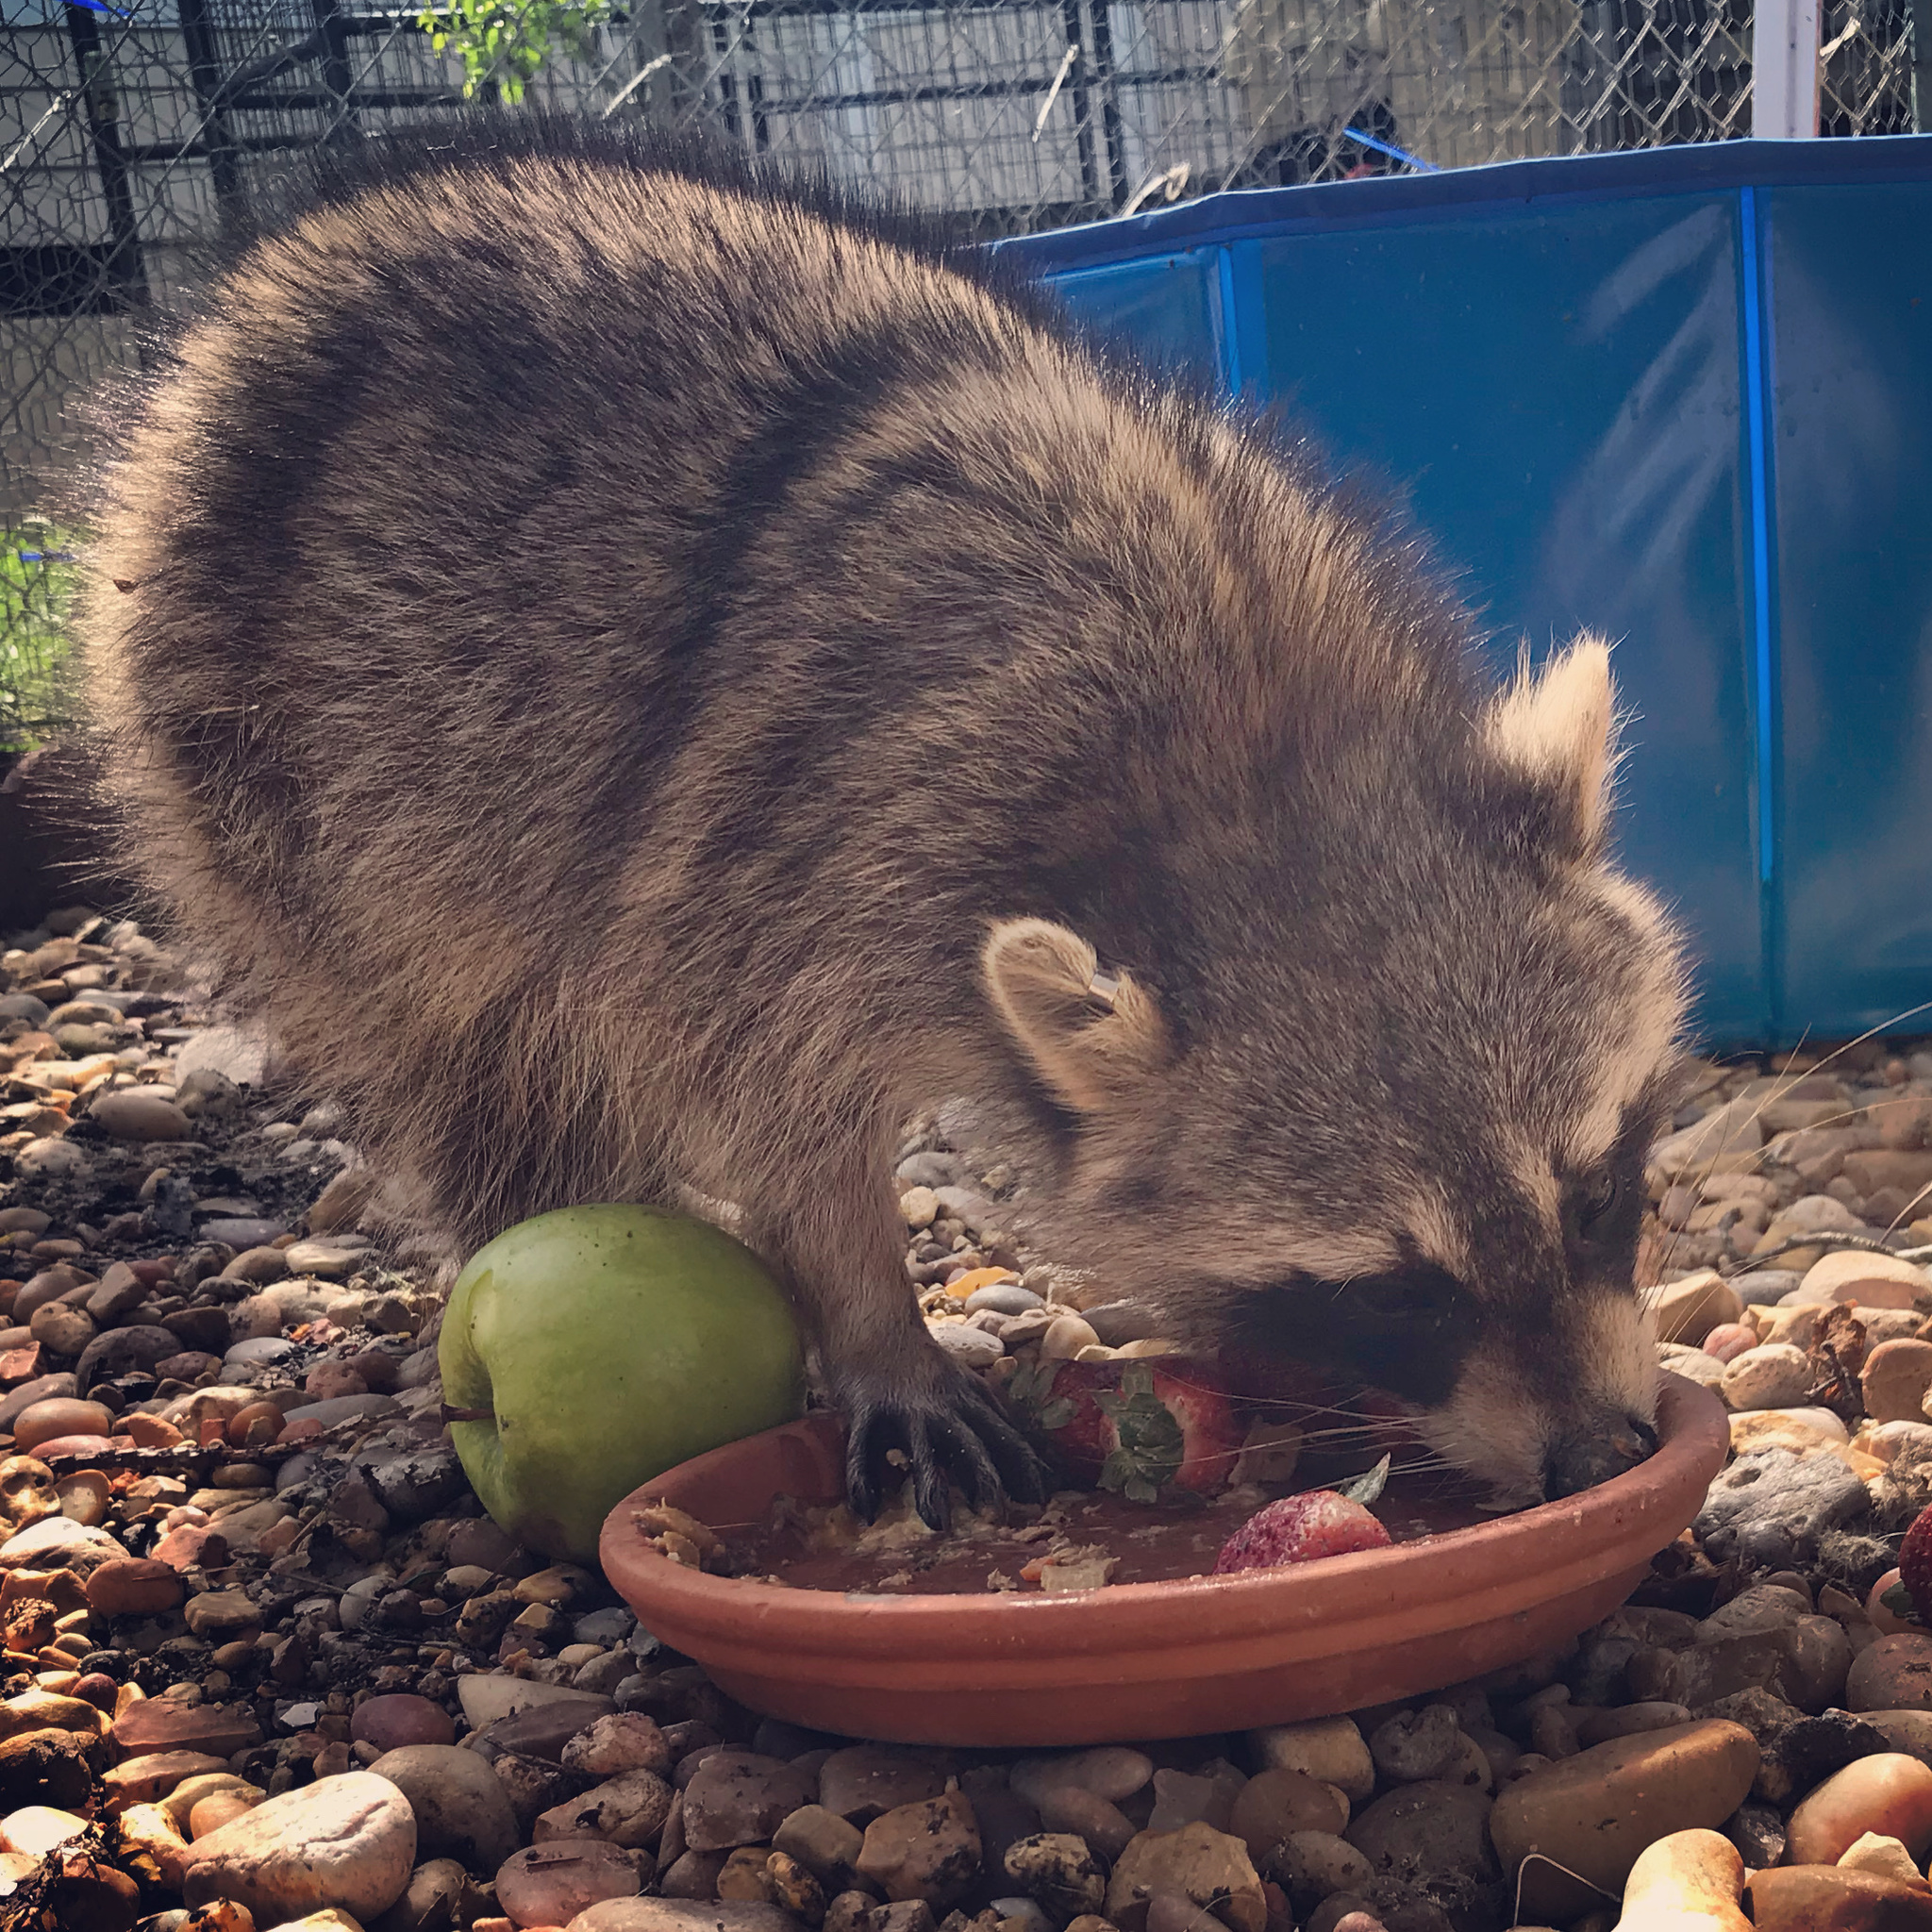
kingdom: Animalia
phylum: Chordata
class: Mammalia
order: Carnivora
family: Procyonidae
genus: Procyon
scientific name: Procyon lotor
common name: Raccoon
